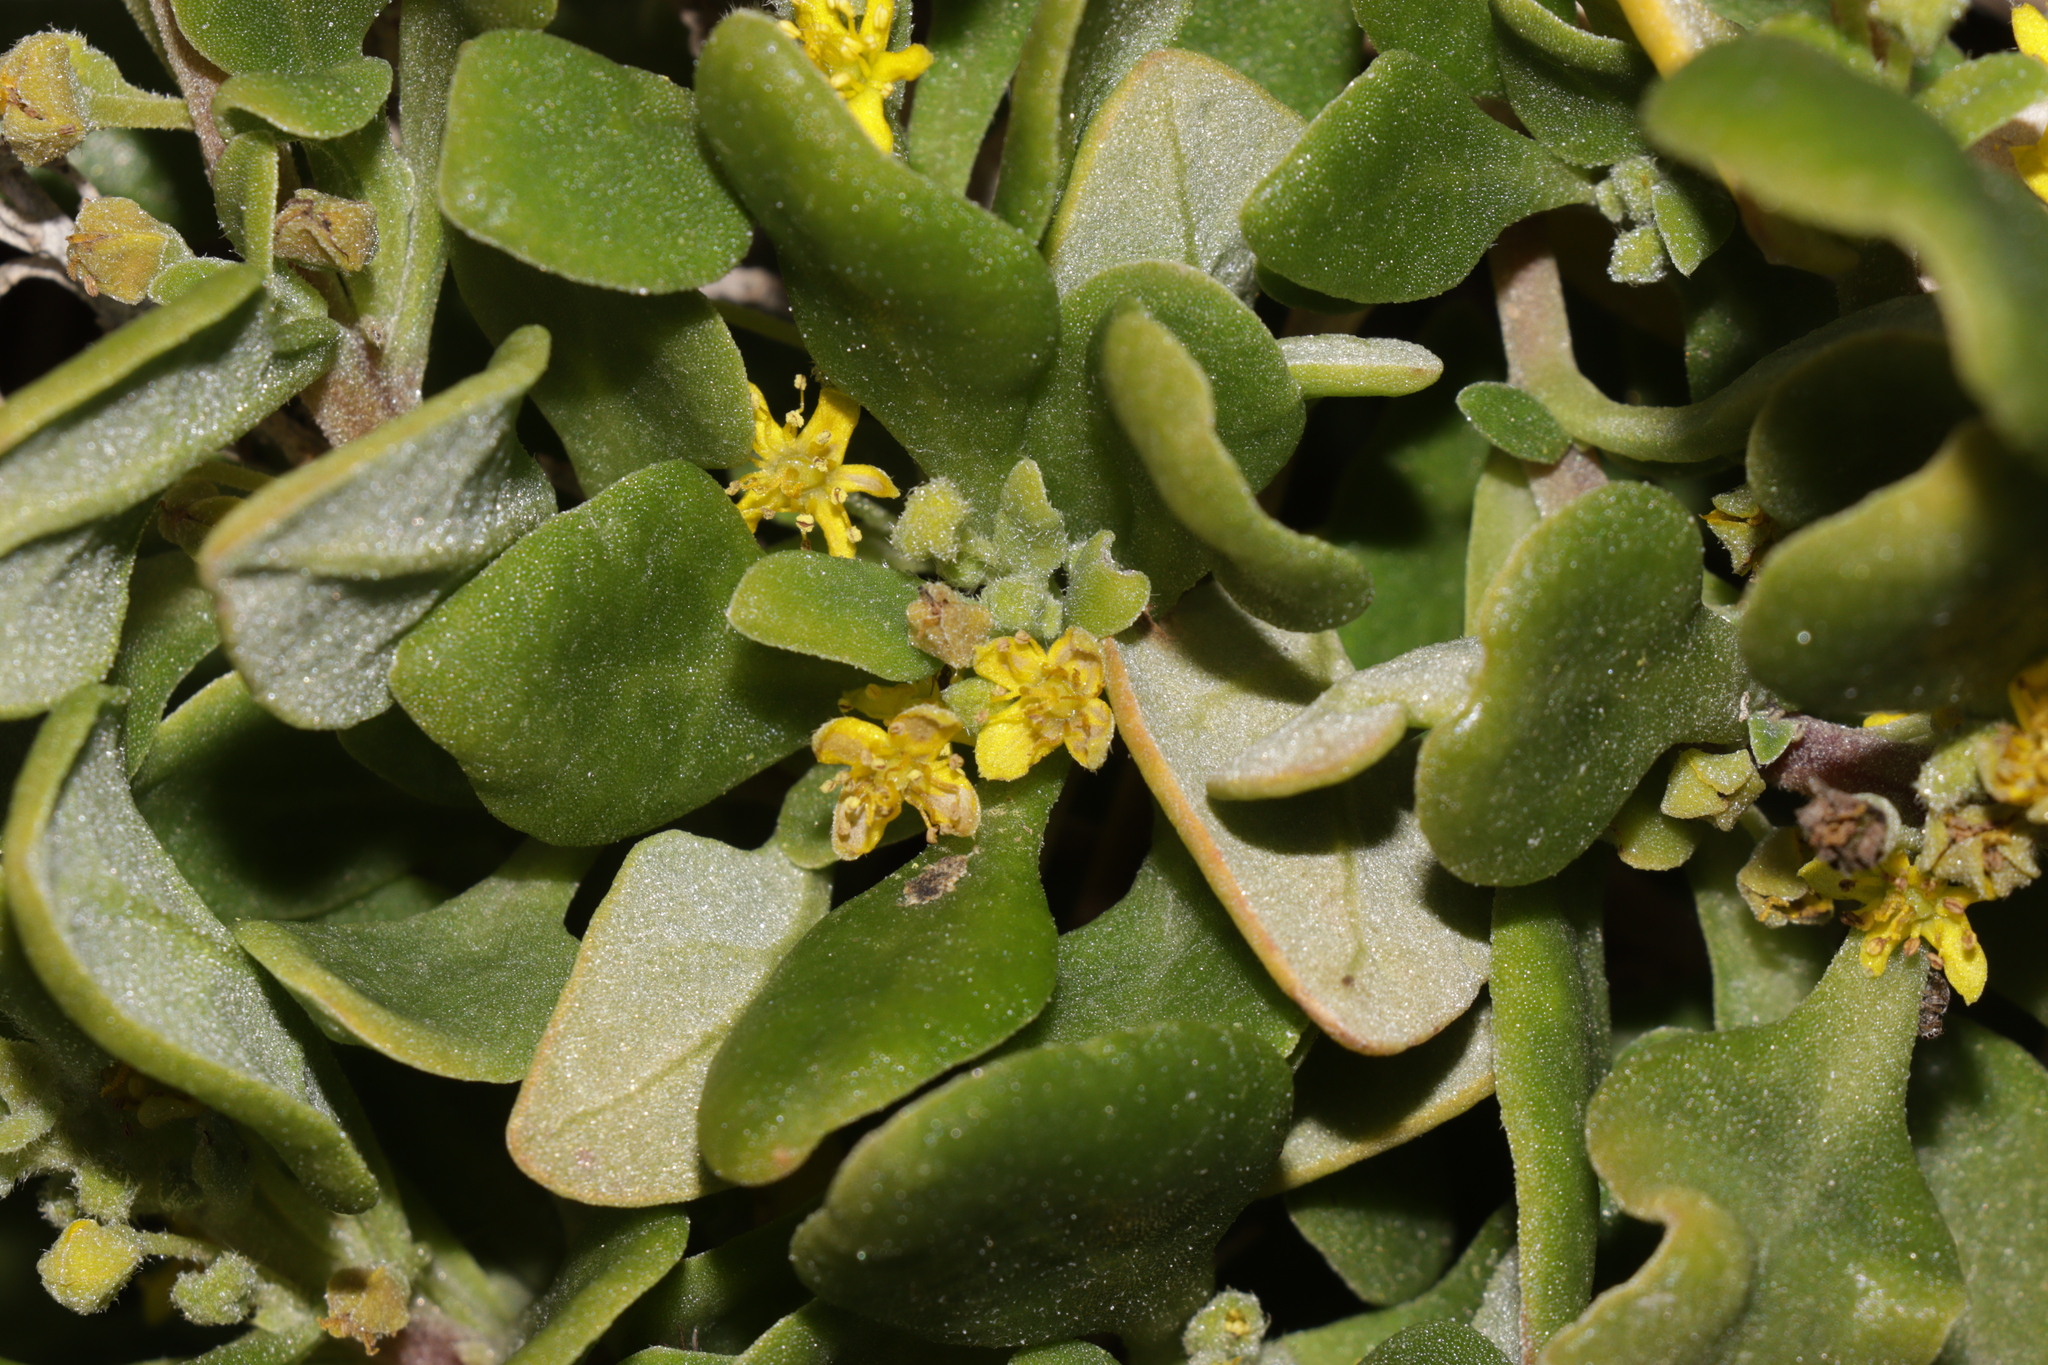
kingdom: Plantae
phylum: Tracheophyta
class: Magnoliopsida
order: Caryophyllales
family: Aizoaceae
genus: Tetragonia
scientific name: Tetragonia implexicoma
